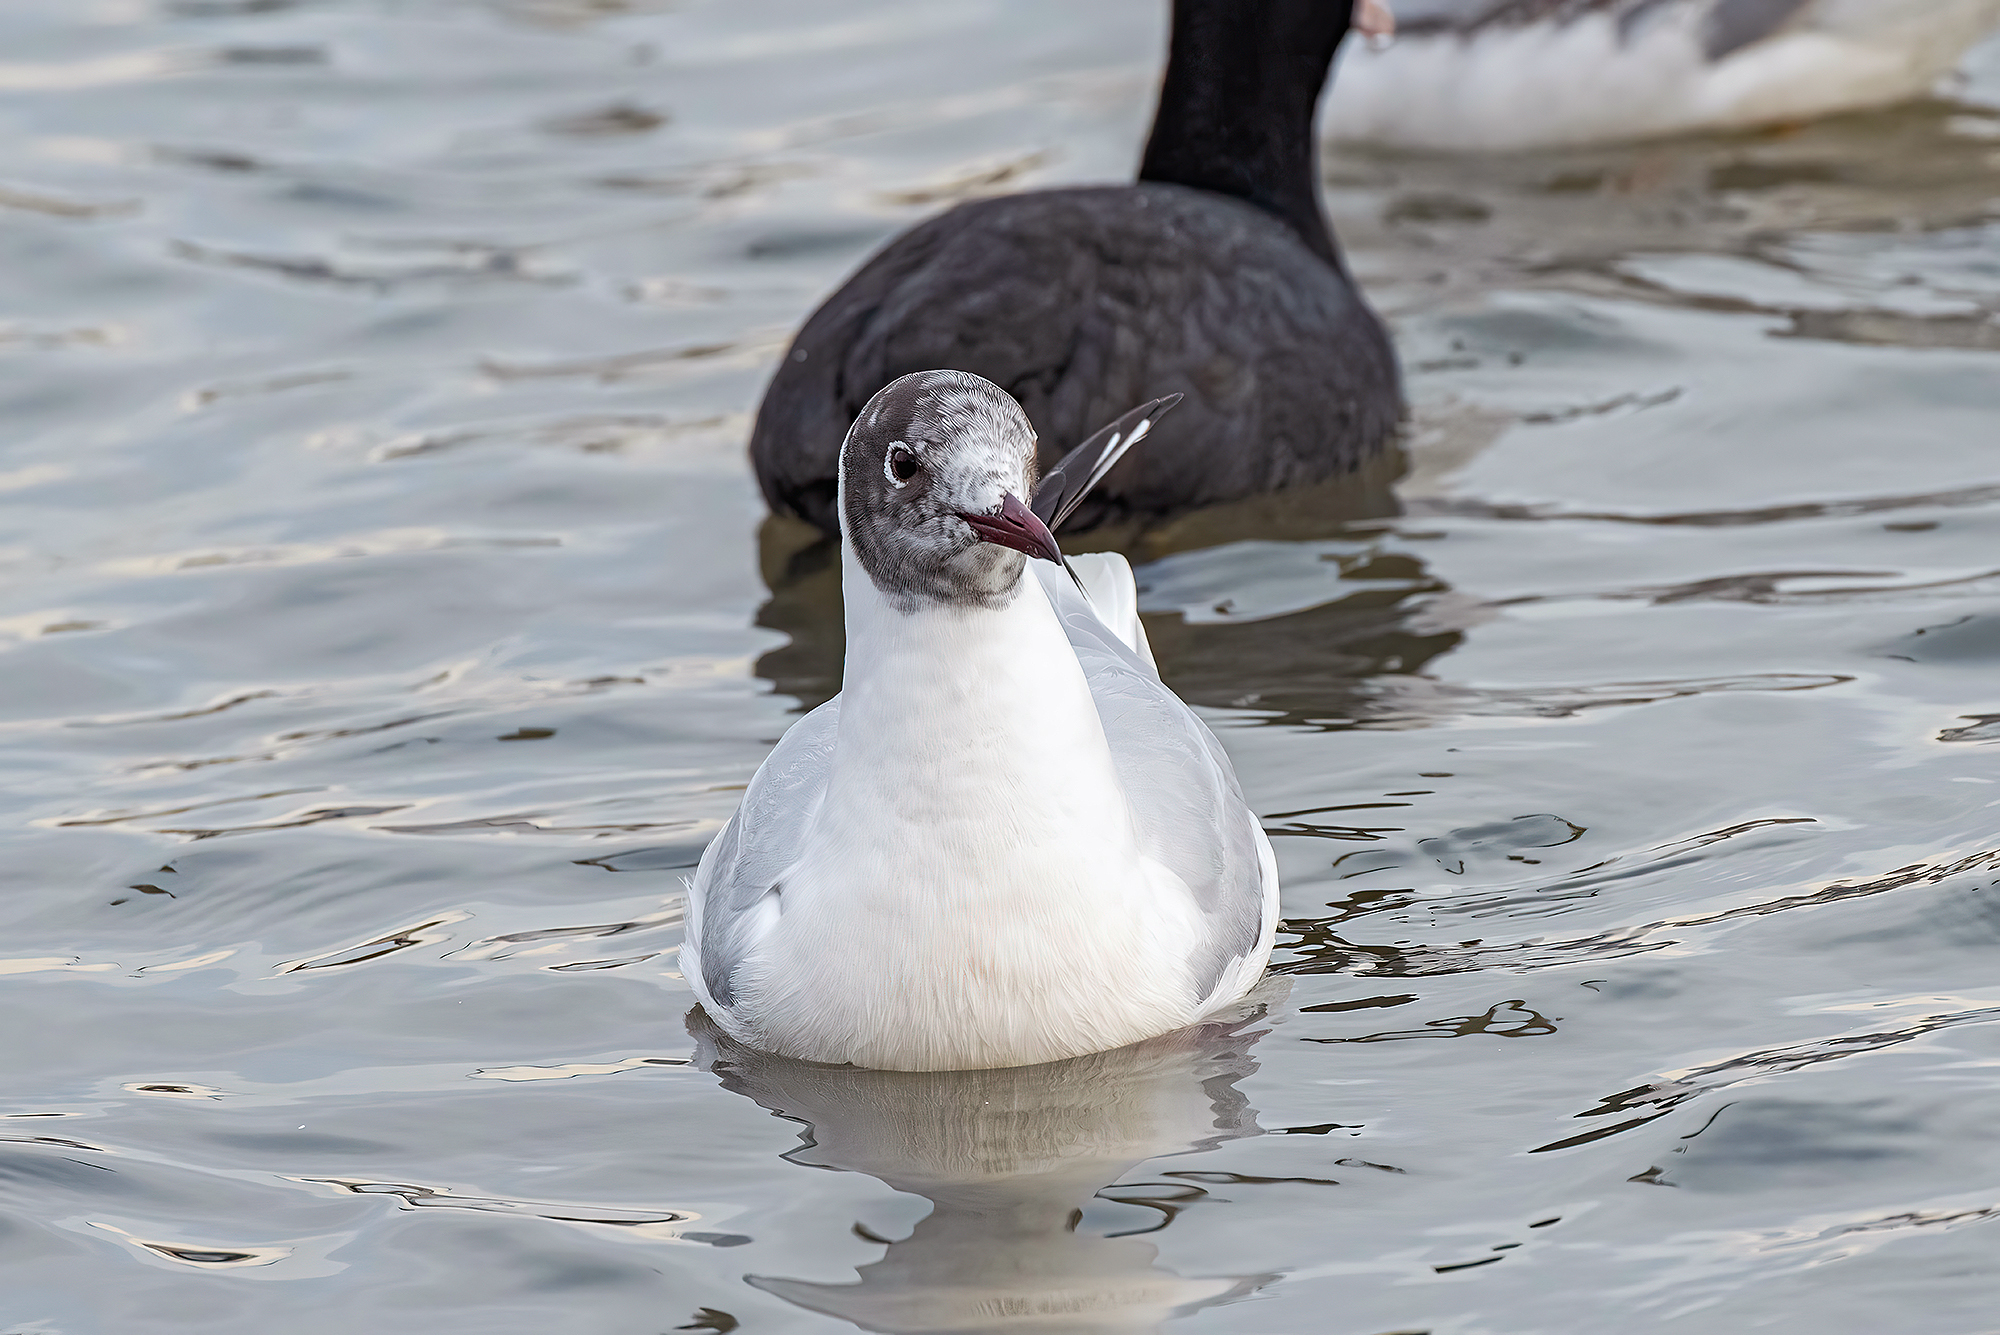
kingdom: Animalia
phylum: Chordata
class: Aves
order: Charadriiformes
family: Laridae
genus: Chroicocephalus
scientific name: Chroicocephalus ridibundus
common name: Black-headed gull
